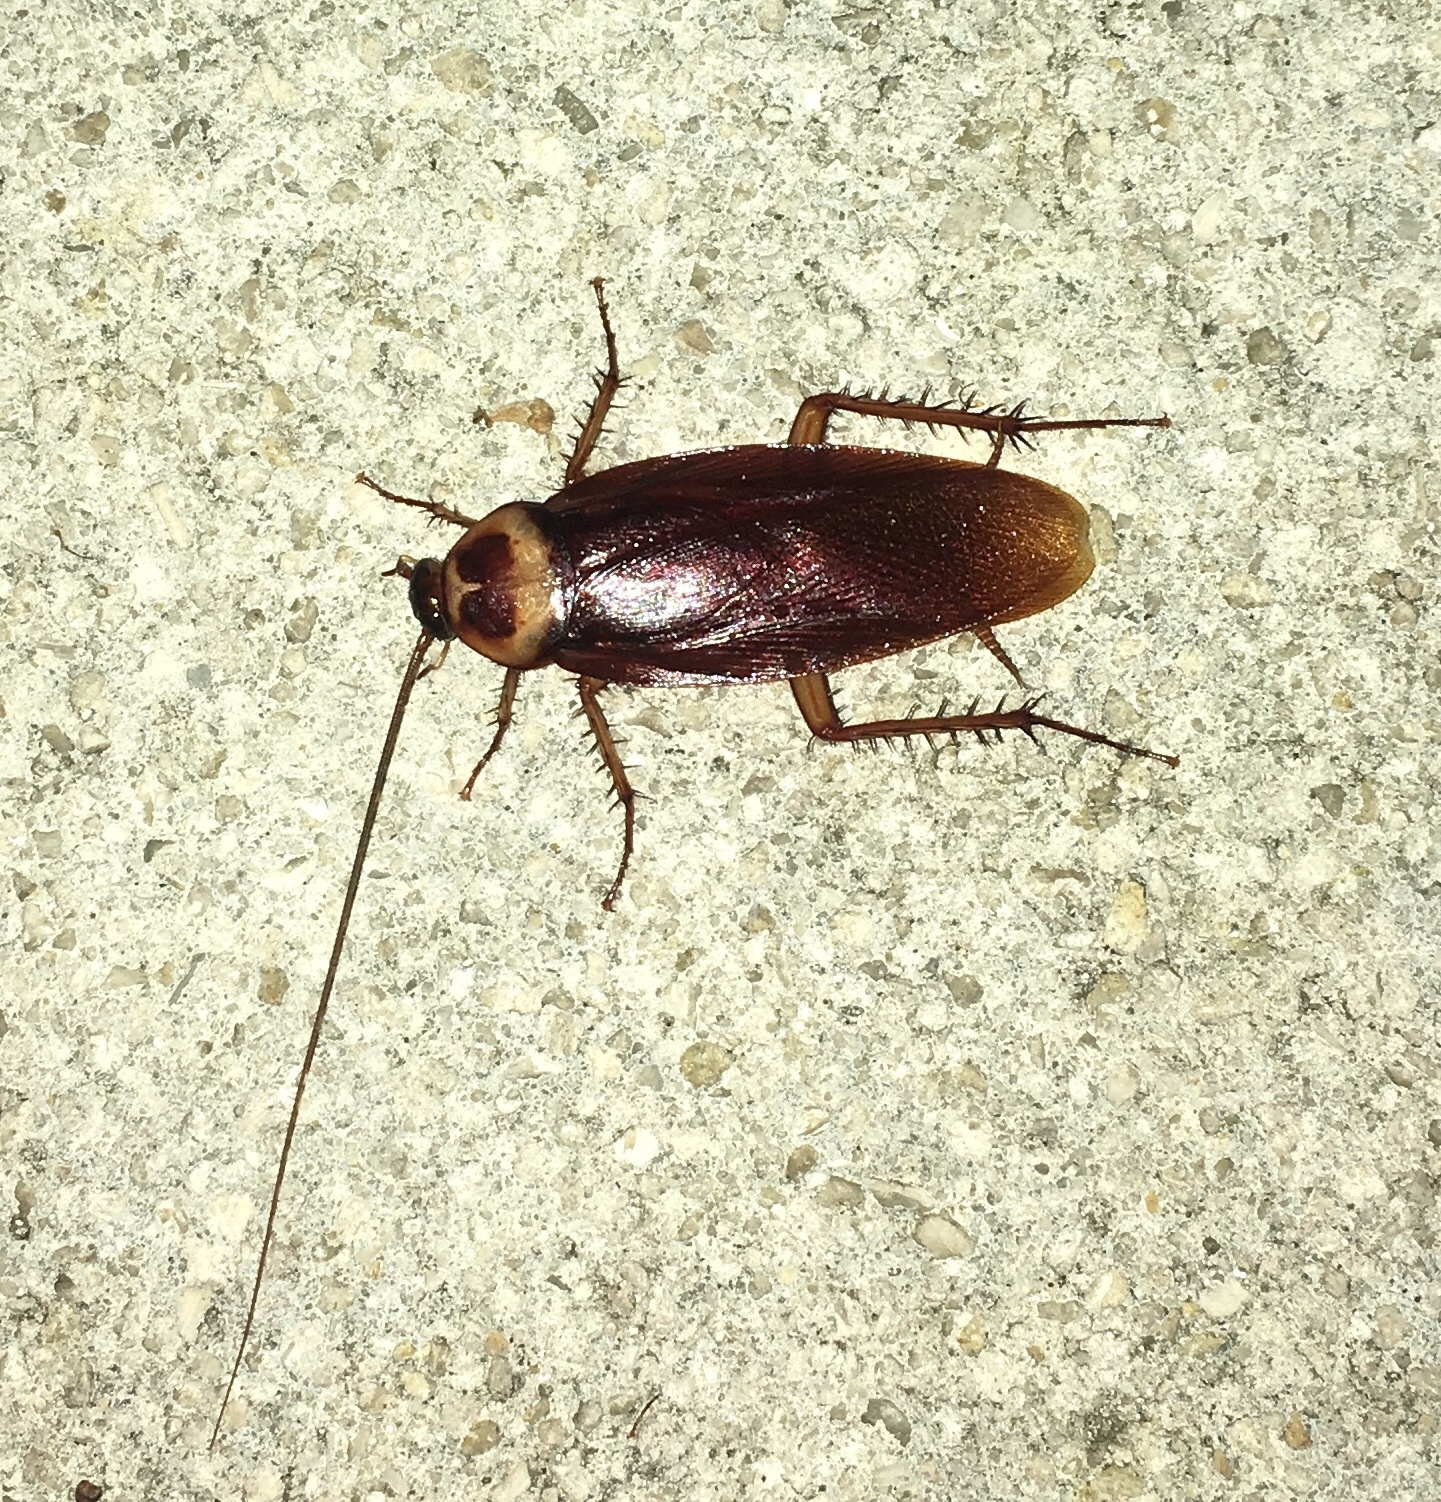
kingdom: Animalia
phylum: Arthropoda
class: Insecta
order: Blattodea
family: Blattidae
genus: Periplaneta
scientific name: Periplaneta americana
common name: American cockroach
